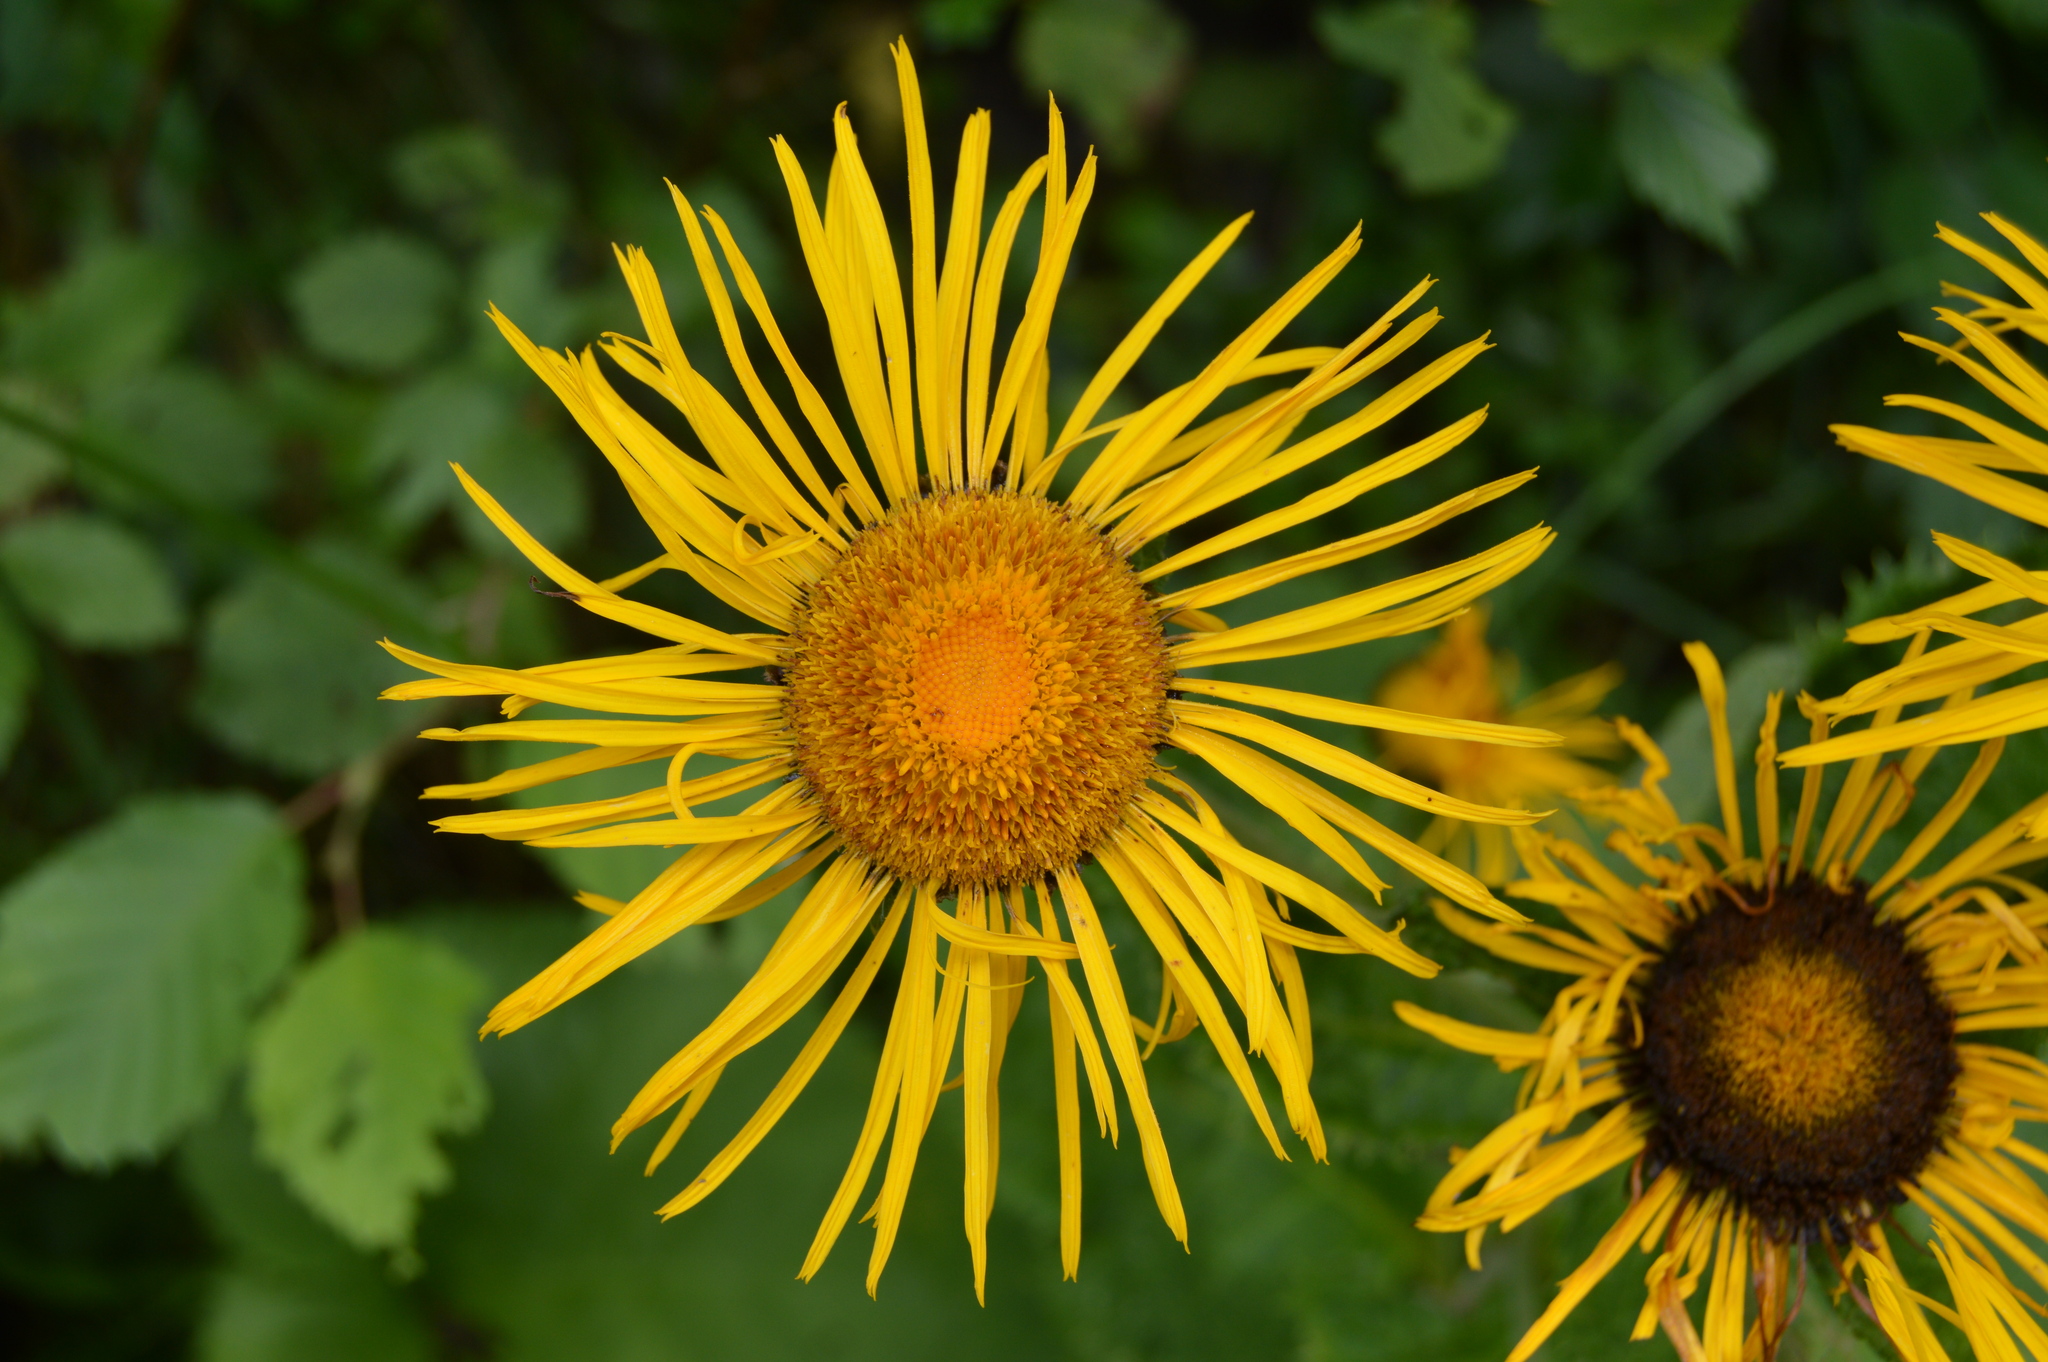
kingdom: Plantae
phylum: Tracheophyta
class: Magnoliopsida
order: Asterales
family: Asteraceae
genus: Telekia
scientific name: Telekia speciosa
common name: Yellow oxeye
